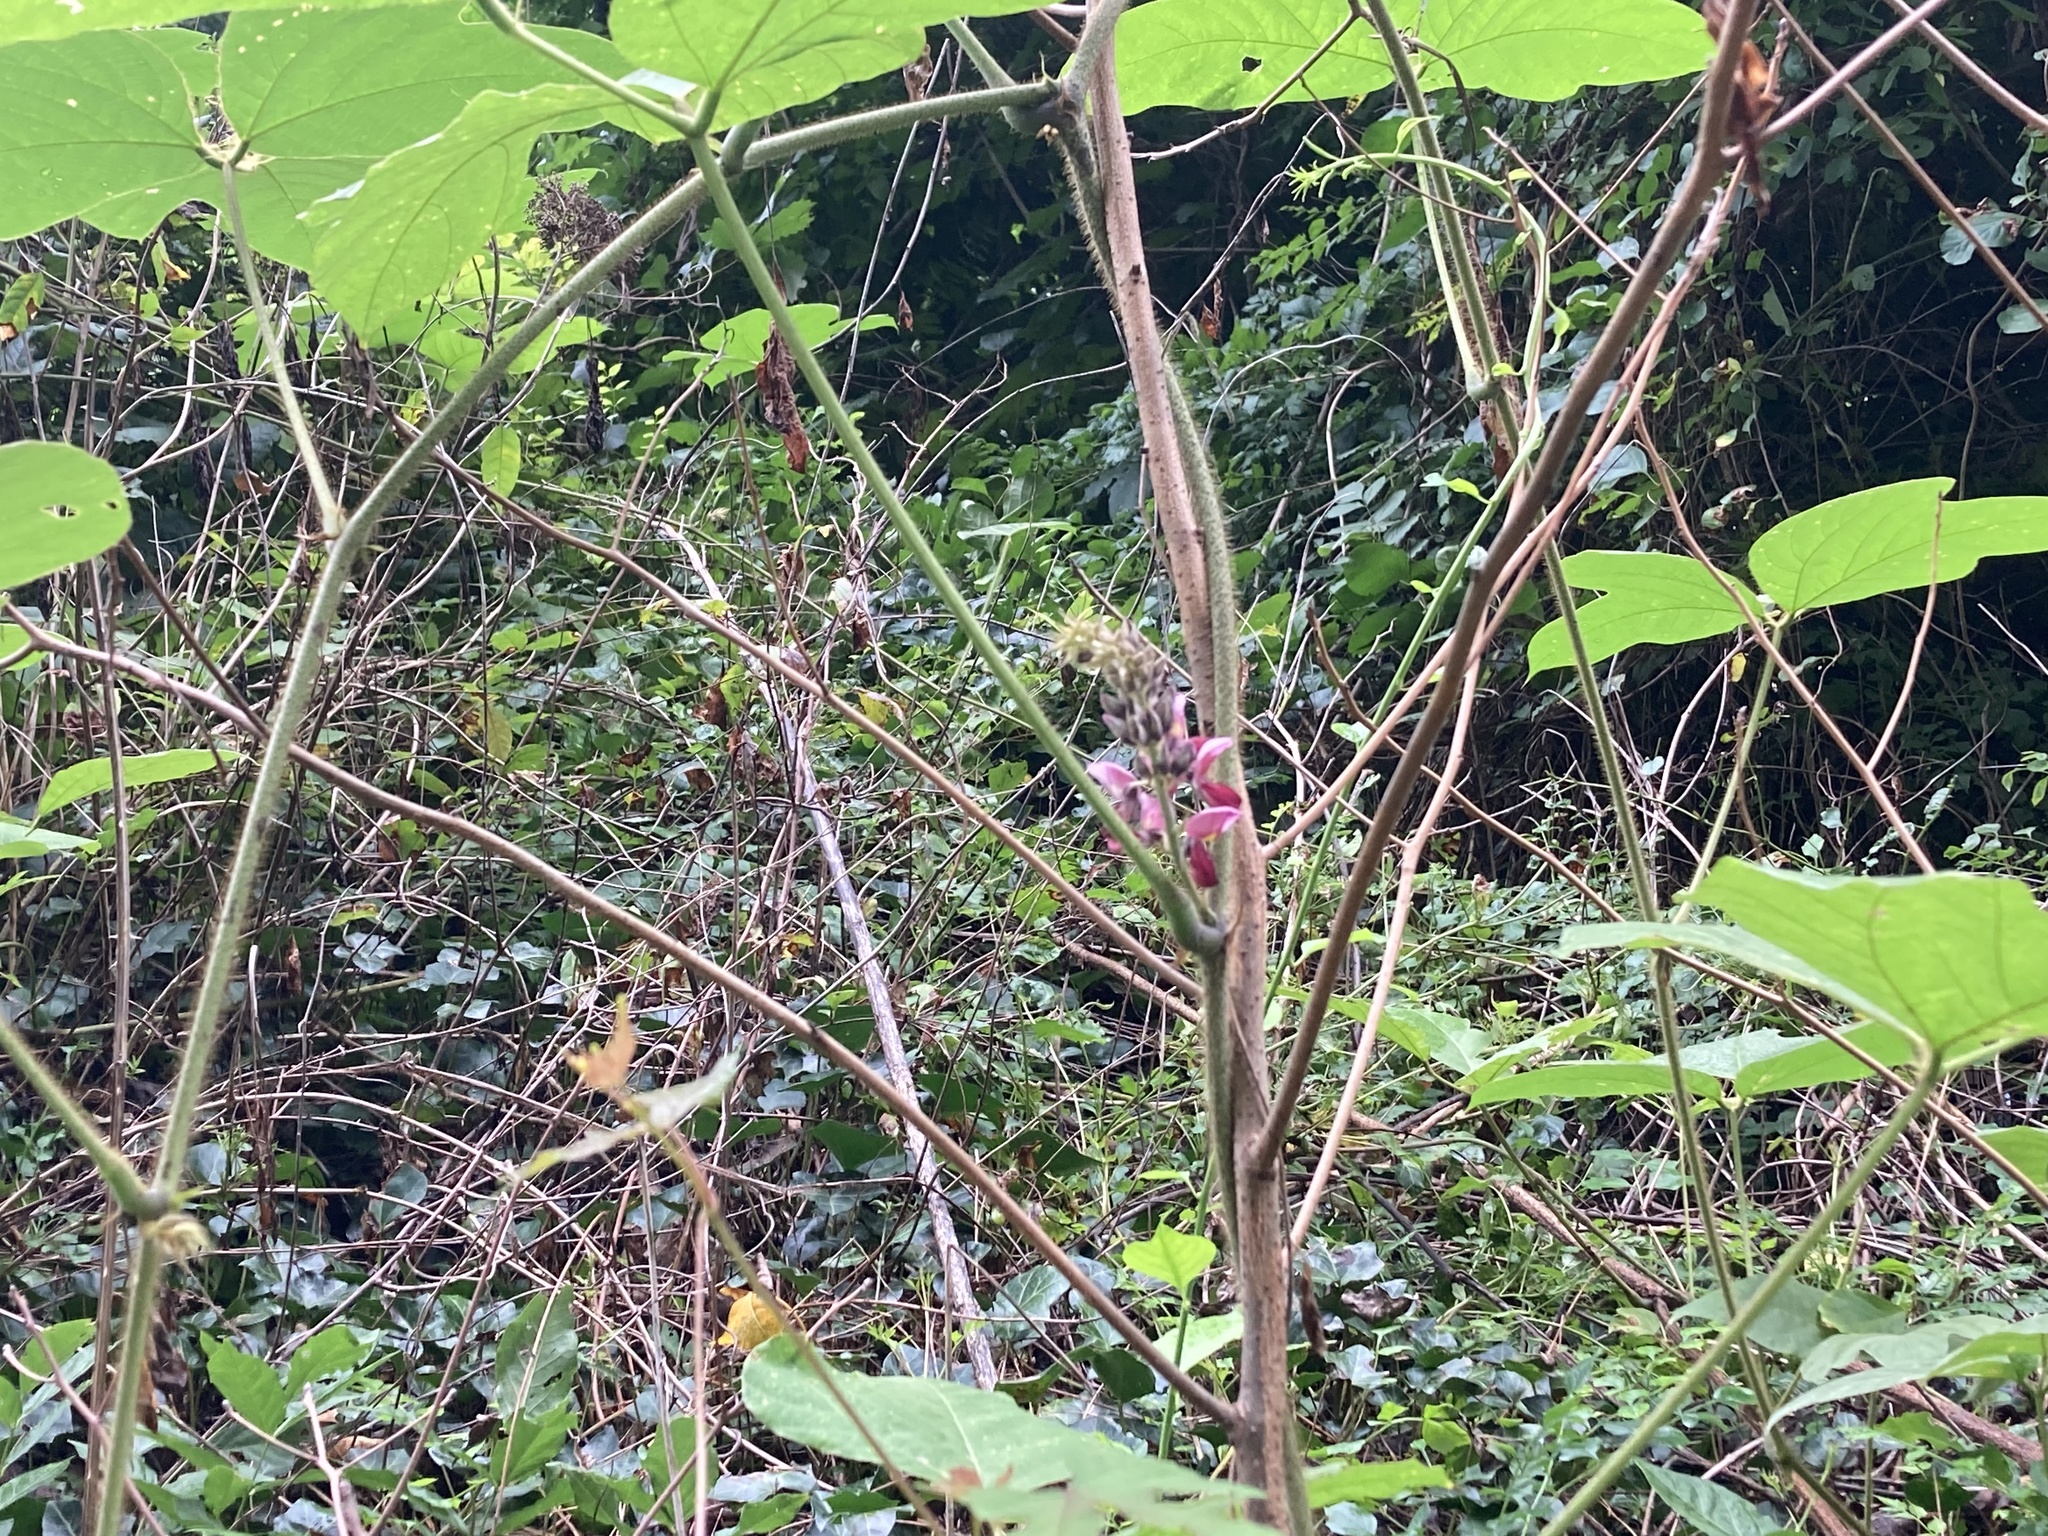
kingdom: Plantae
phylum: Tracheophyta
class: Magnoliopsida
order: Fabales
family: Fabaceae
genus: Pueraria
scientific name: Pueraria montana
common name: Kudzu
